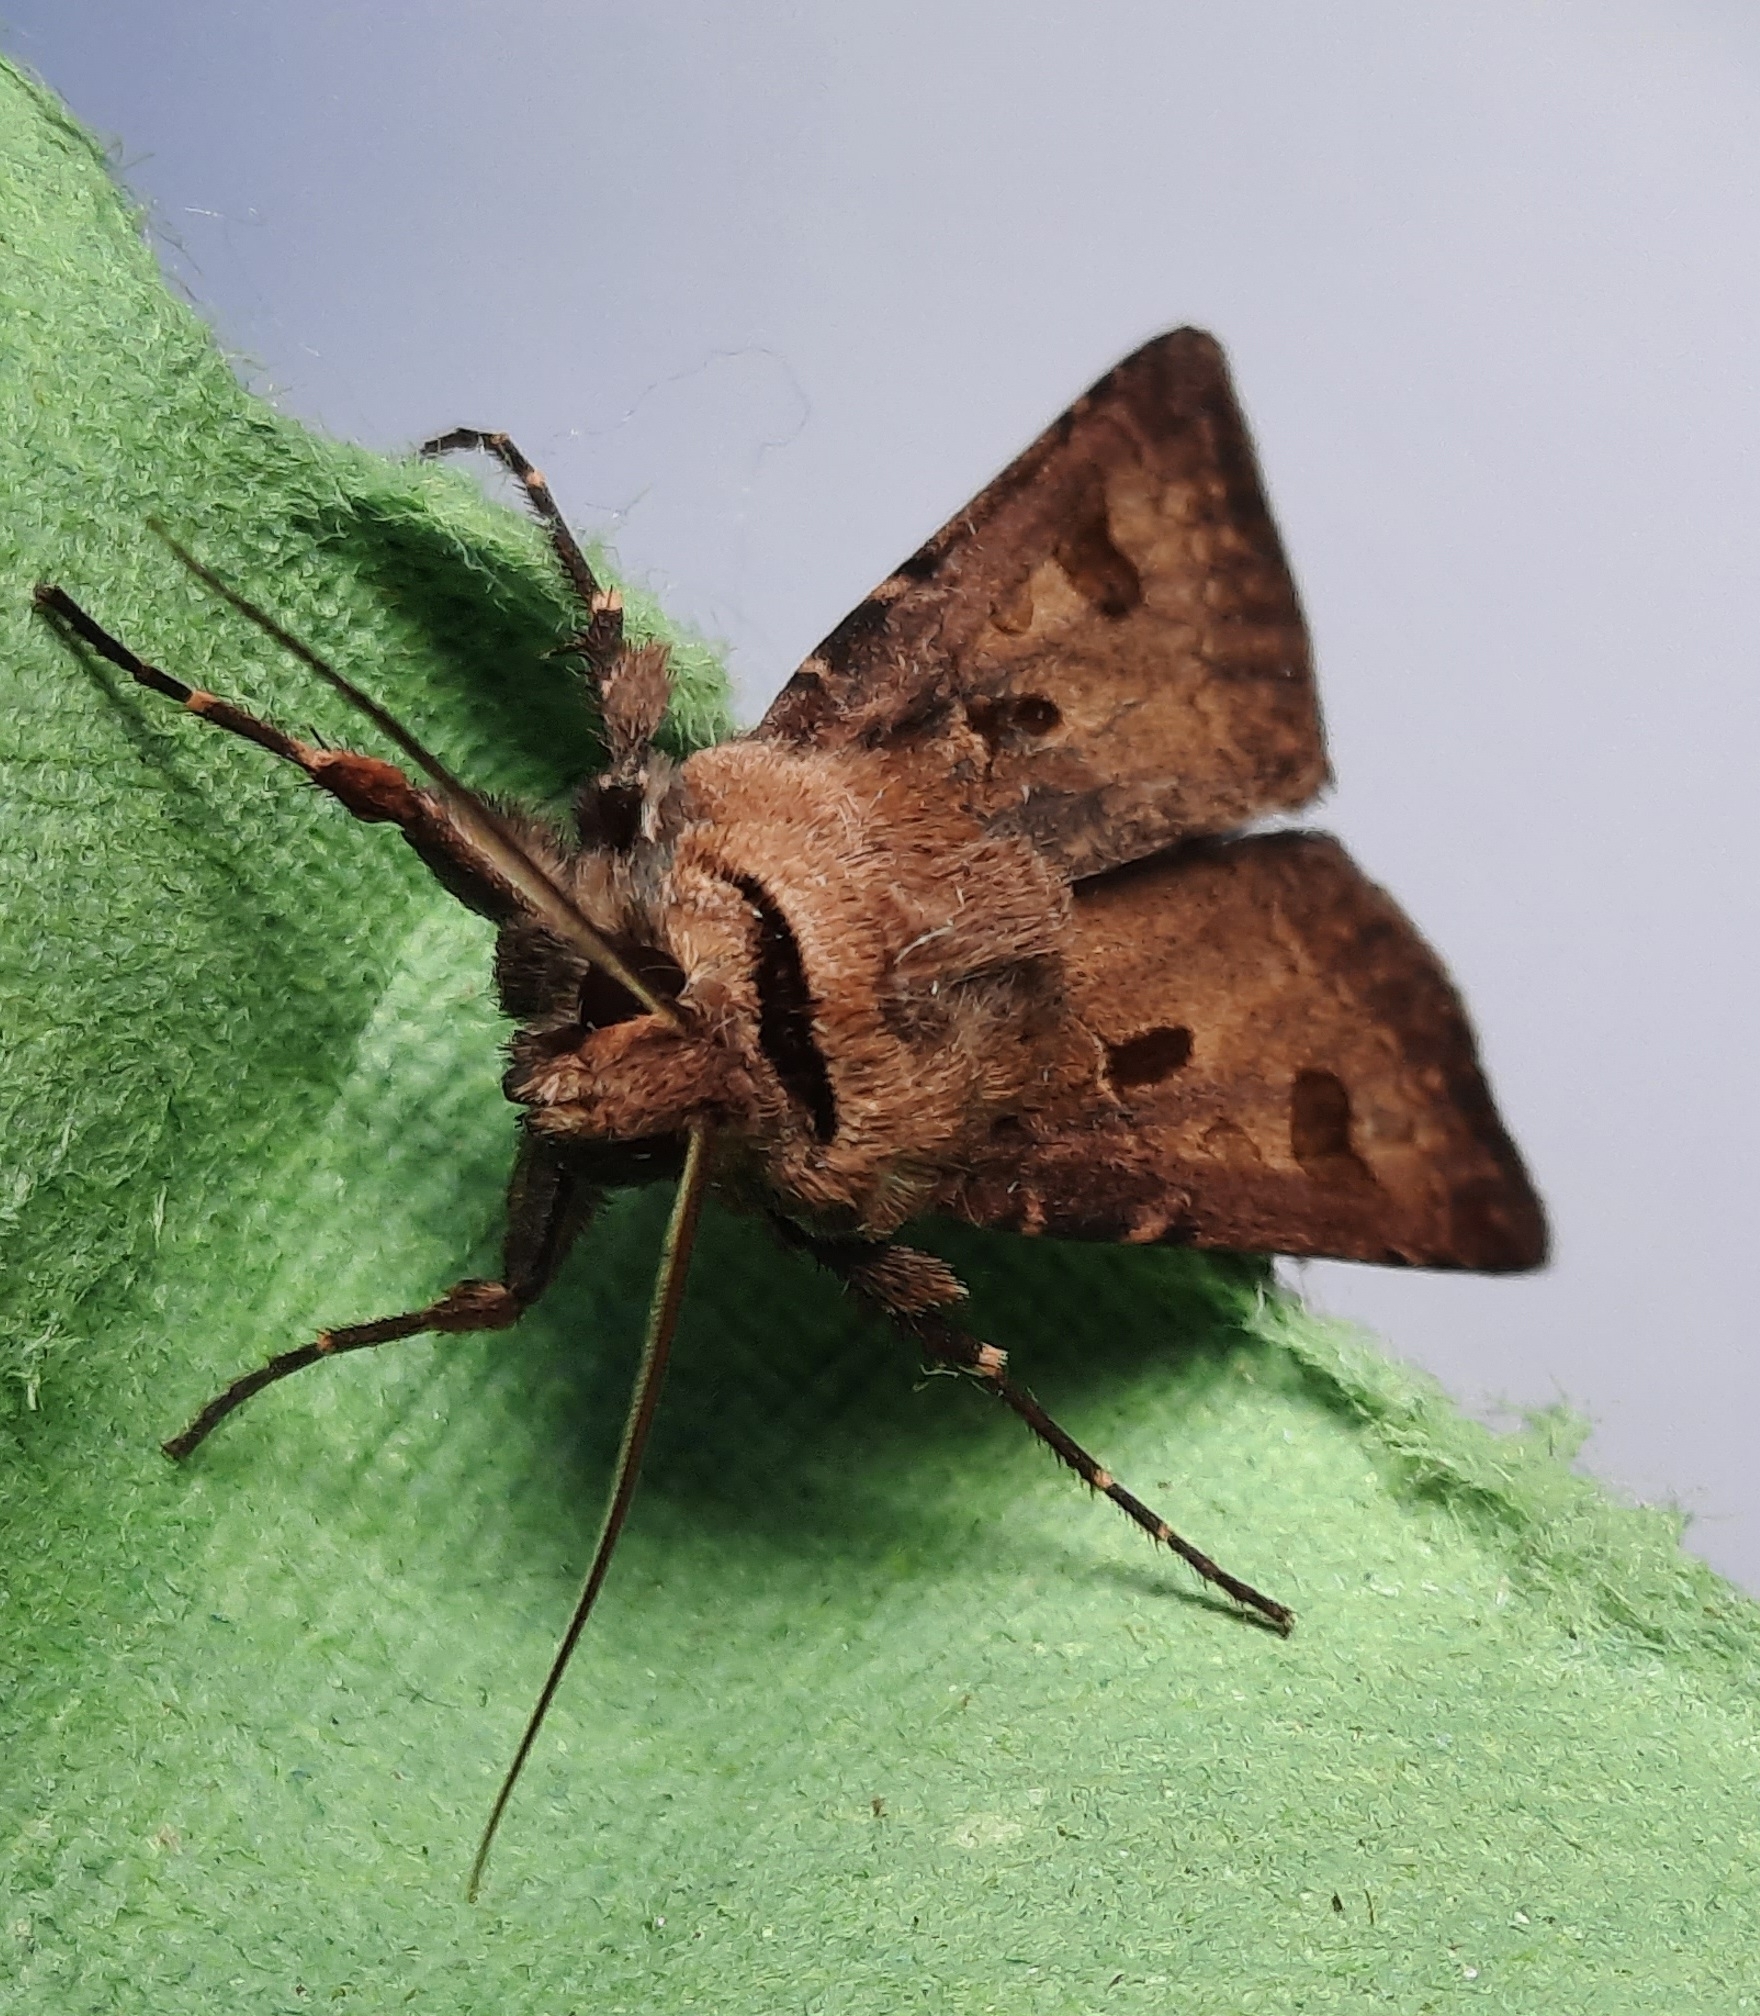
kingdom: Animalia
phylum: Arthropoda
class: Insecta
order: Lepidoptera
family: Noctuidae
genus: Agrotis
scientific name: Agrotis exclamationis
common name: Heart and dart
